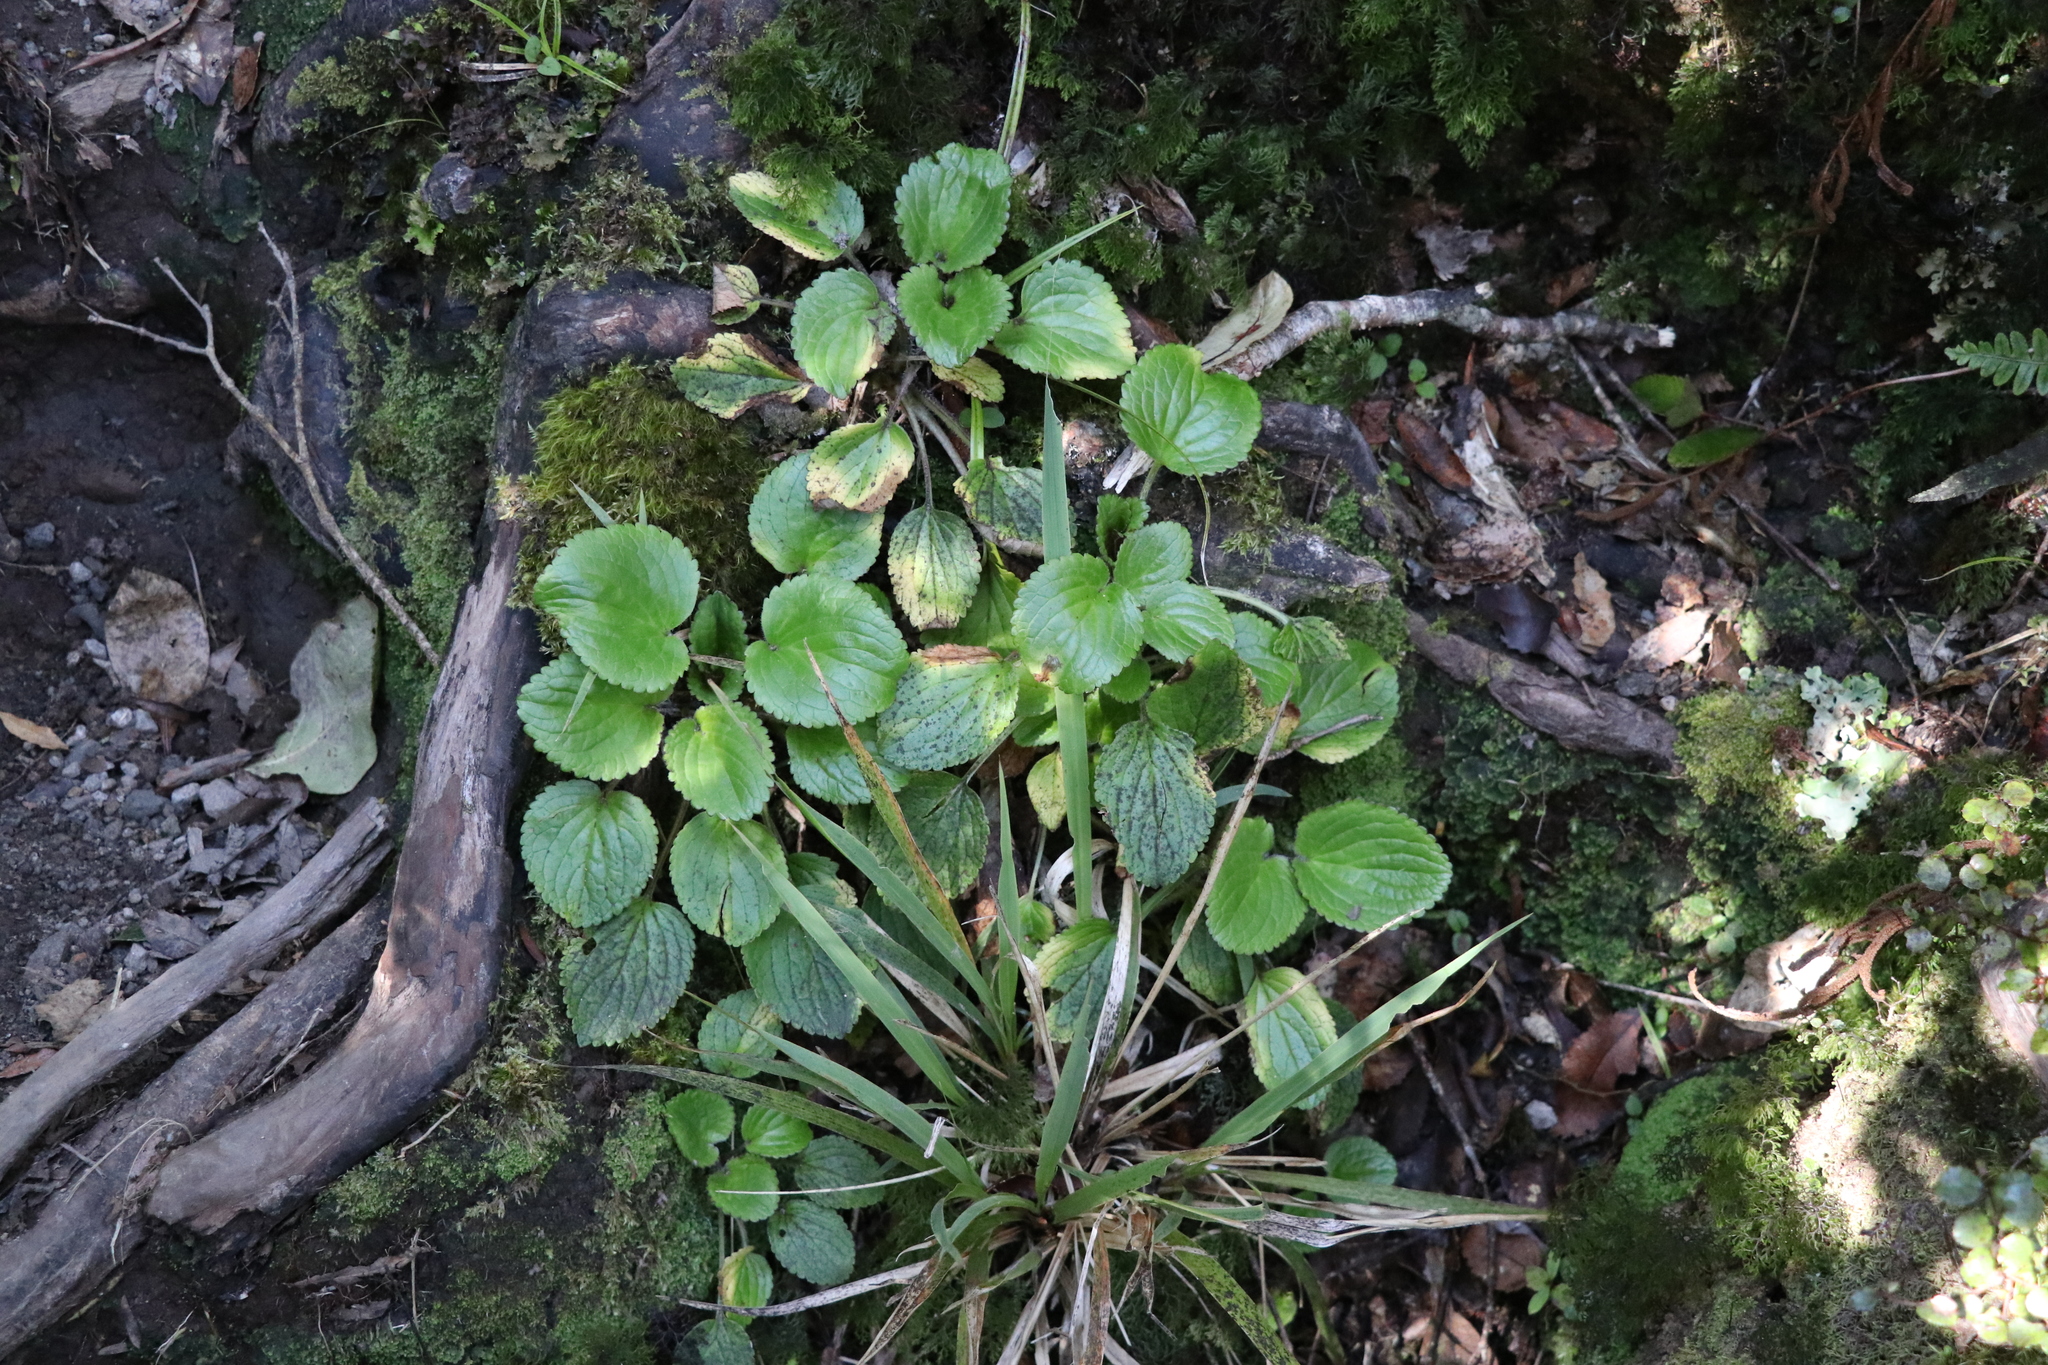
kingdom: Plantae
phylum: Tracheophyta
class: Magnoliopsida
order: Lamiales
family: Plantaginaceae
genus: Ourisia
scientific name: Ourisia macrophylla
